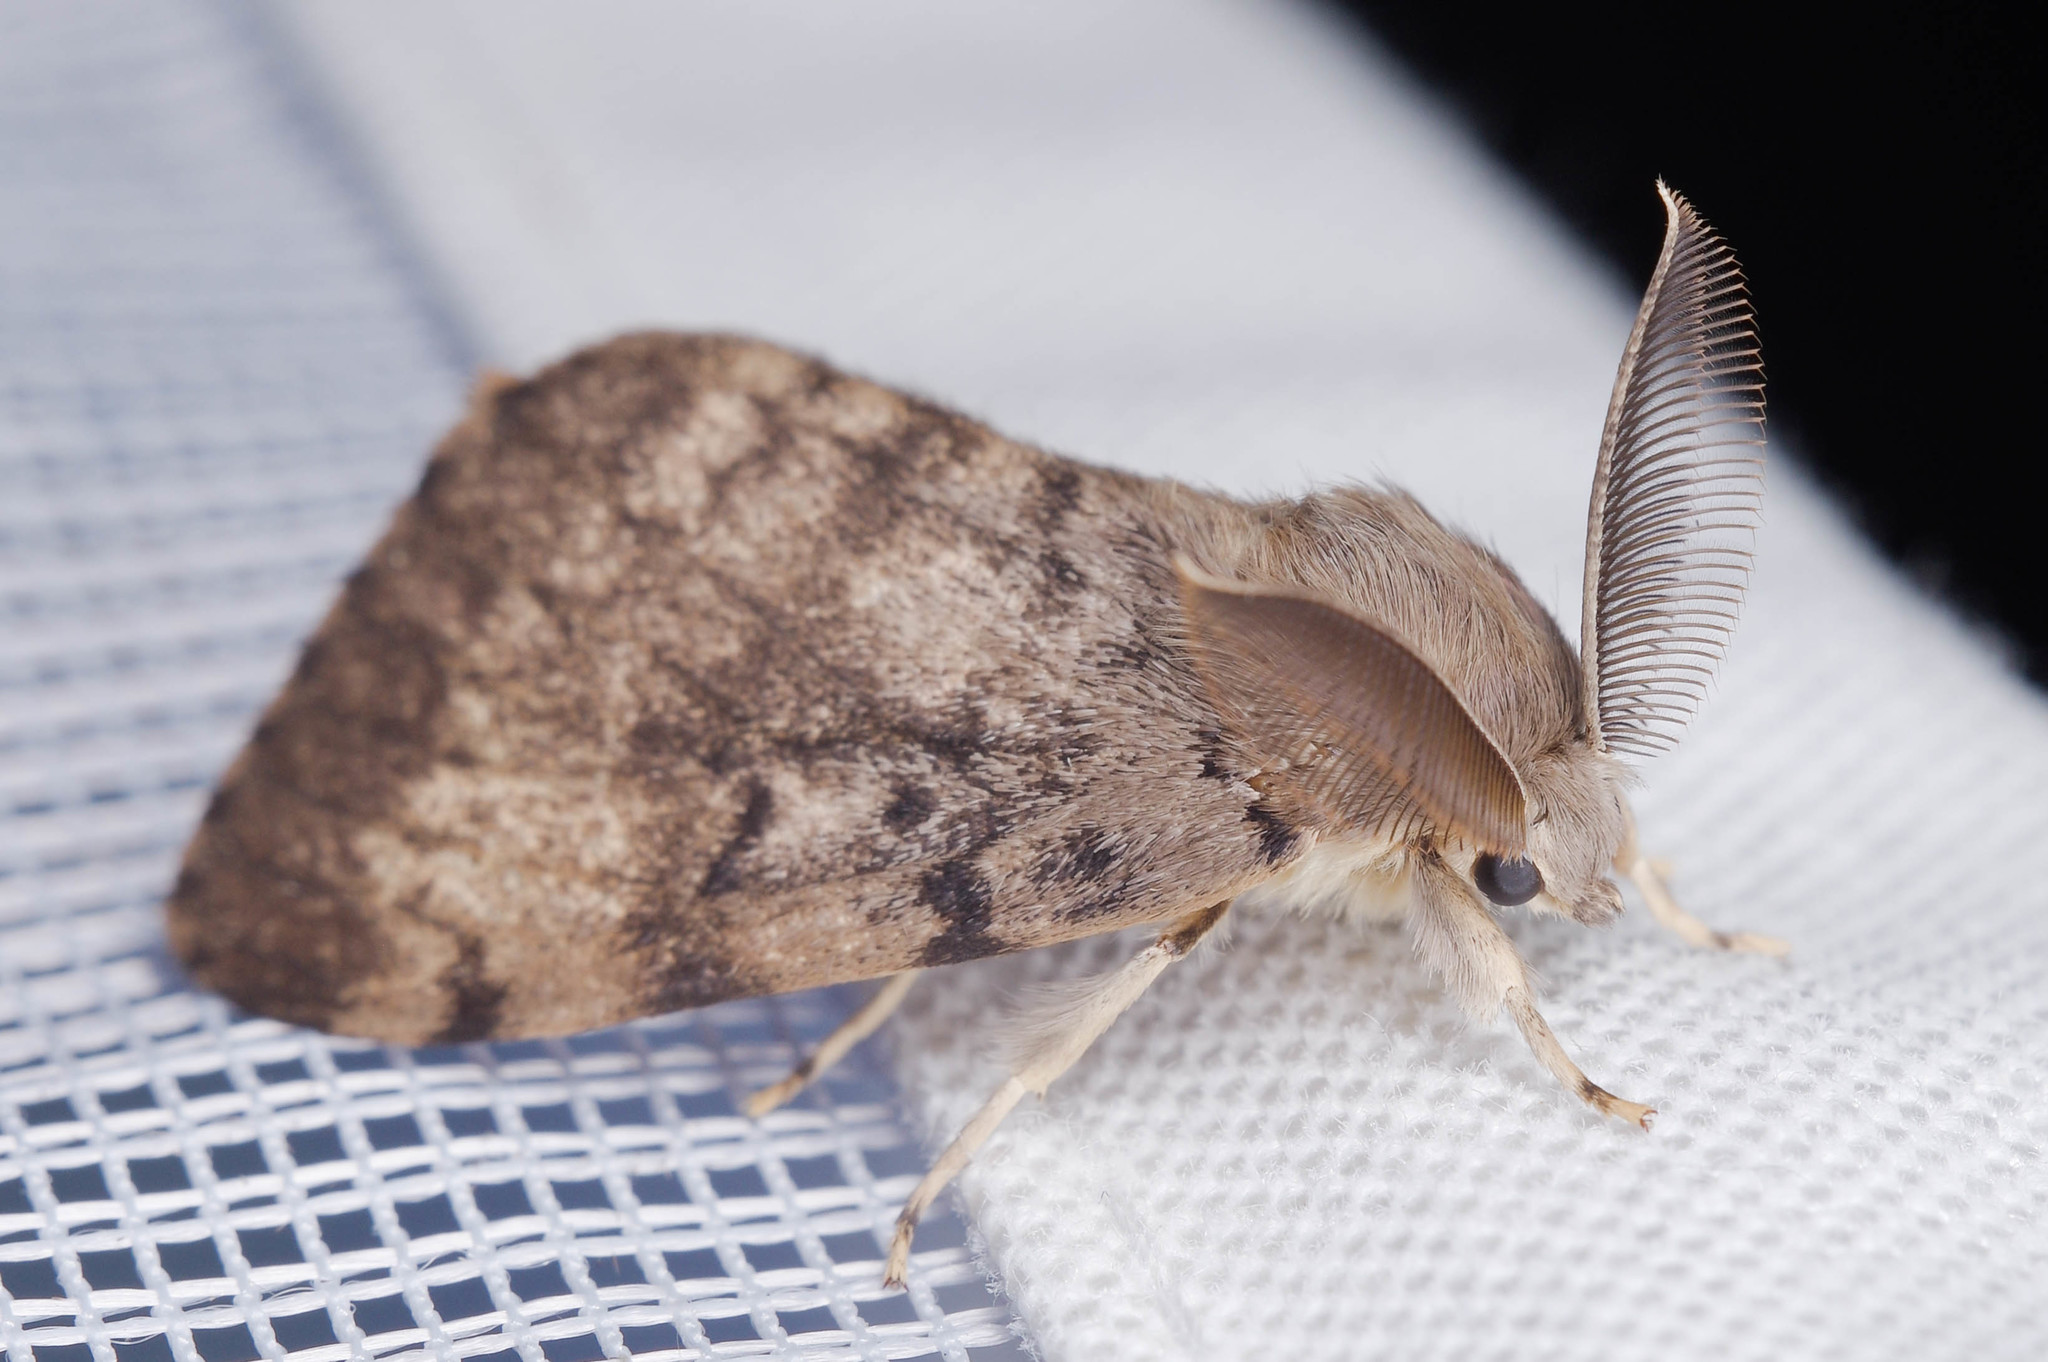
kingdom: Animalia
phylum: Arthropoda
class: Insecta
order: Lepidoptera
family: Erebidae
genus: Lymantria
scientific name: Lymantria dispar
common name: Gypsy moth
